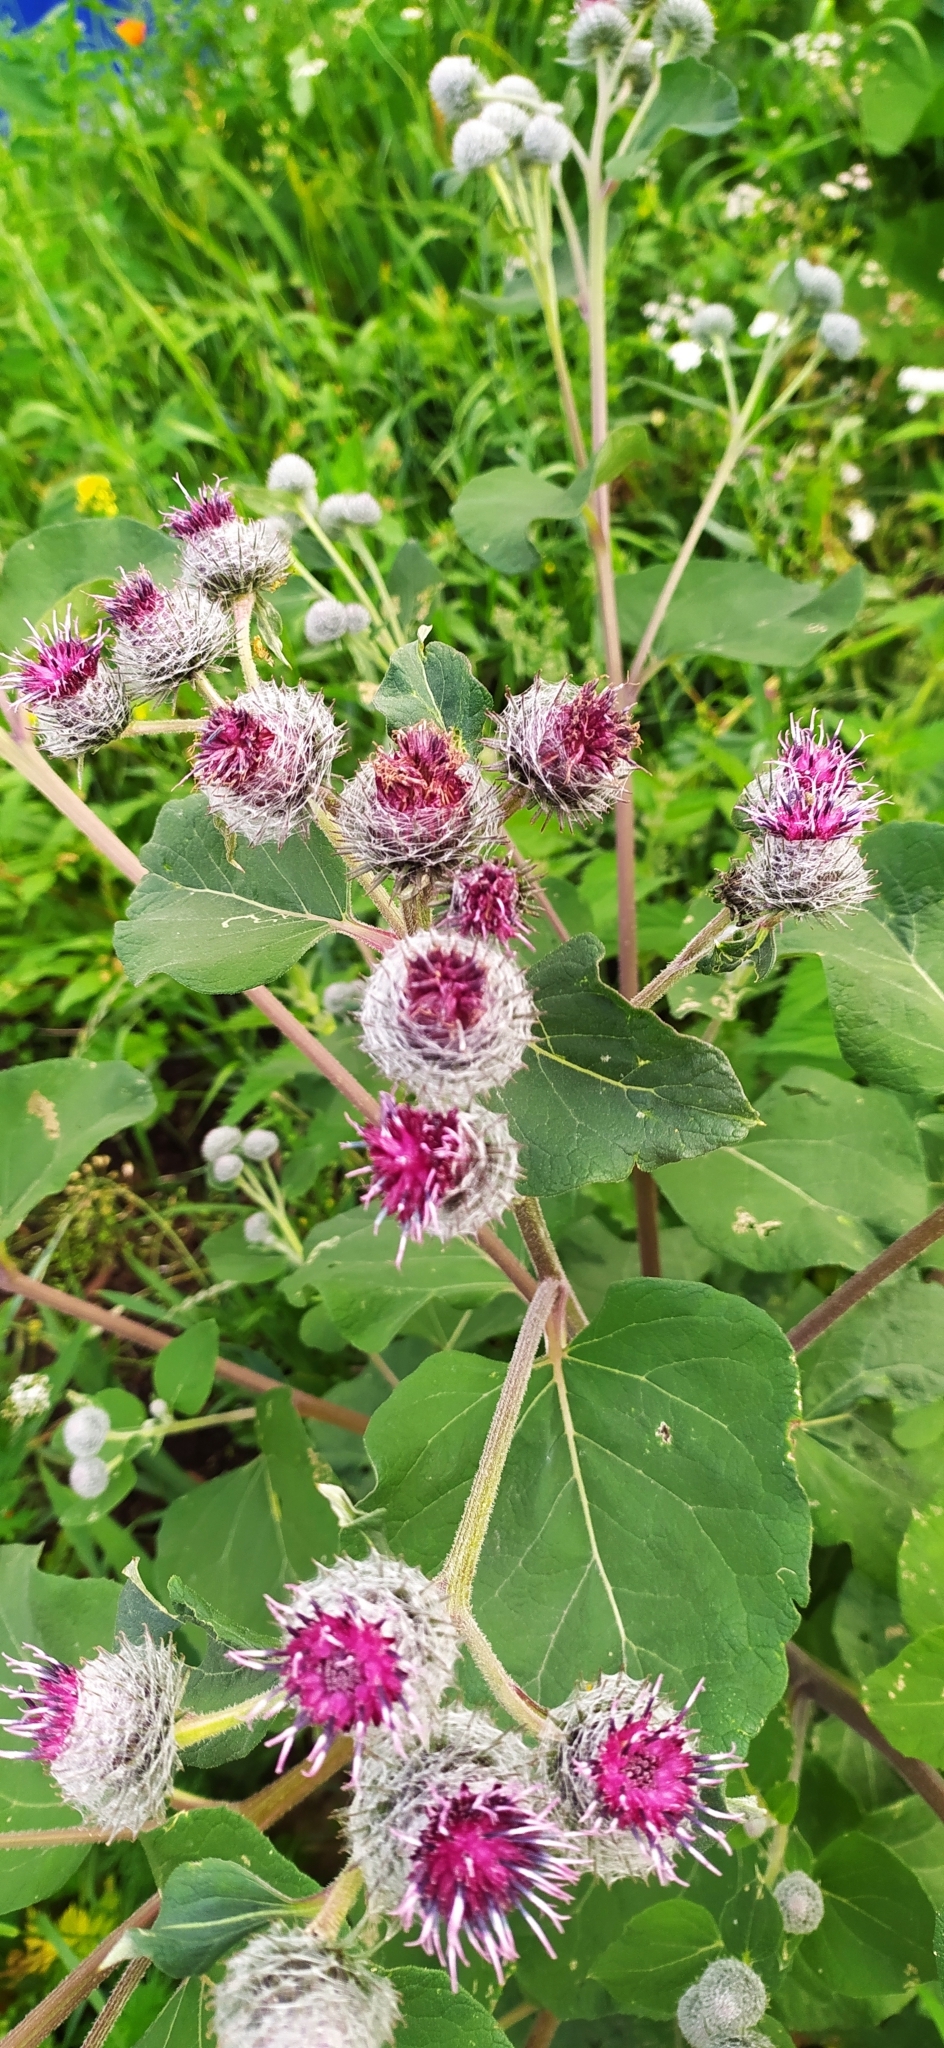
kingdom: Plantae
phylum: Tracheophyta
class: Magnoliopsida
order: Asterales
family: Asteraceae
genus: Arctium
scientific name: Arctium tomentosum
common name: Woolly burdock
